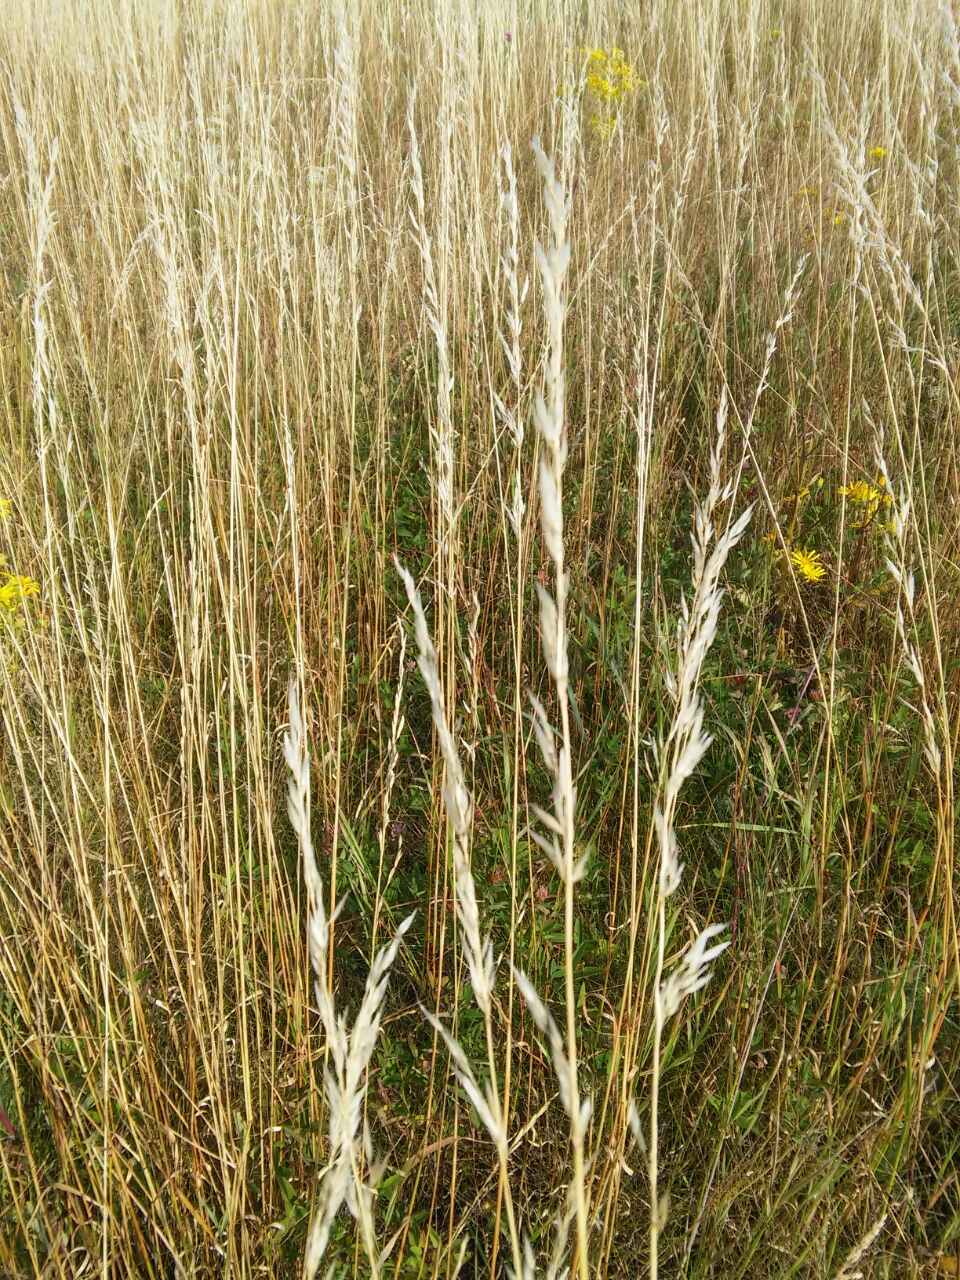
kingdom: Plantae
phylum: Tracheophyta
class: Liliopsida
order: Poales
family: Poaceae
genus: Arrhenatherum
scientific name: Arrhenatherum elatius
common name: Tall oatgrass
